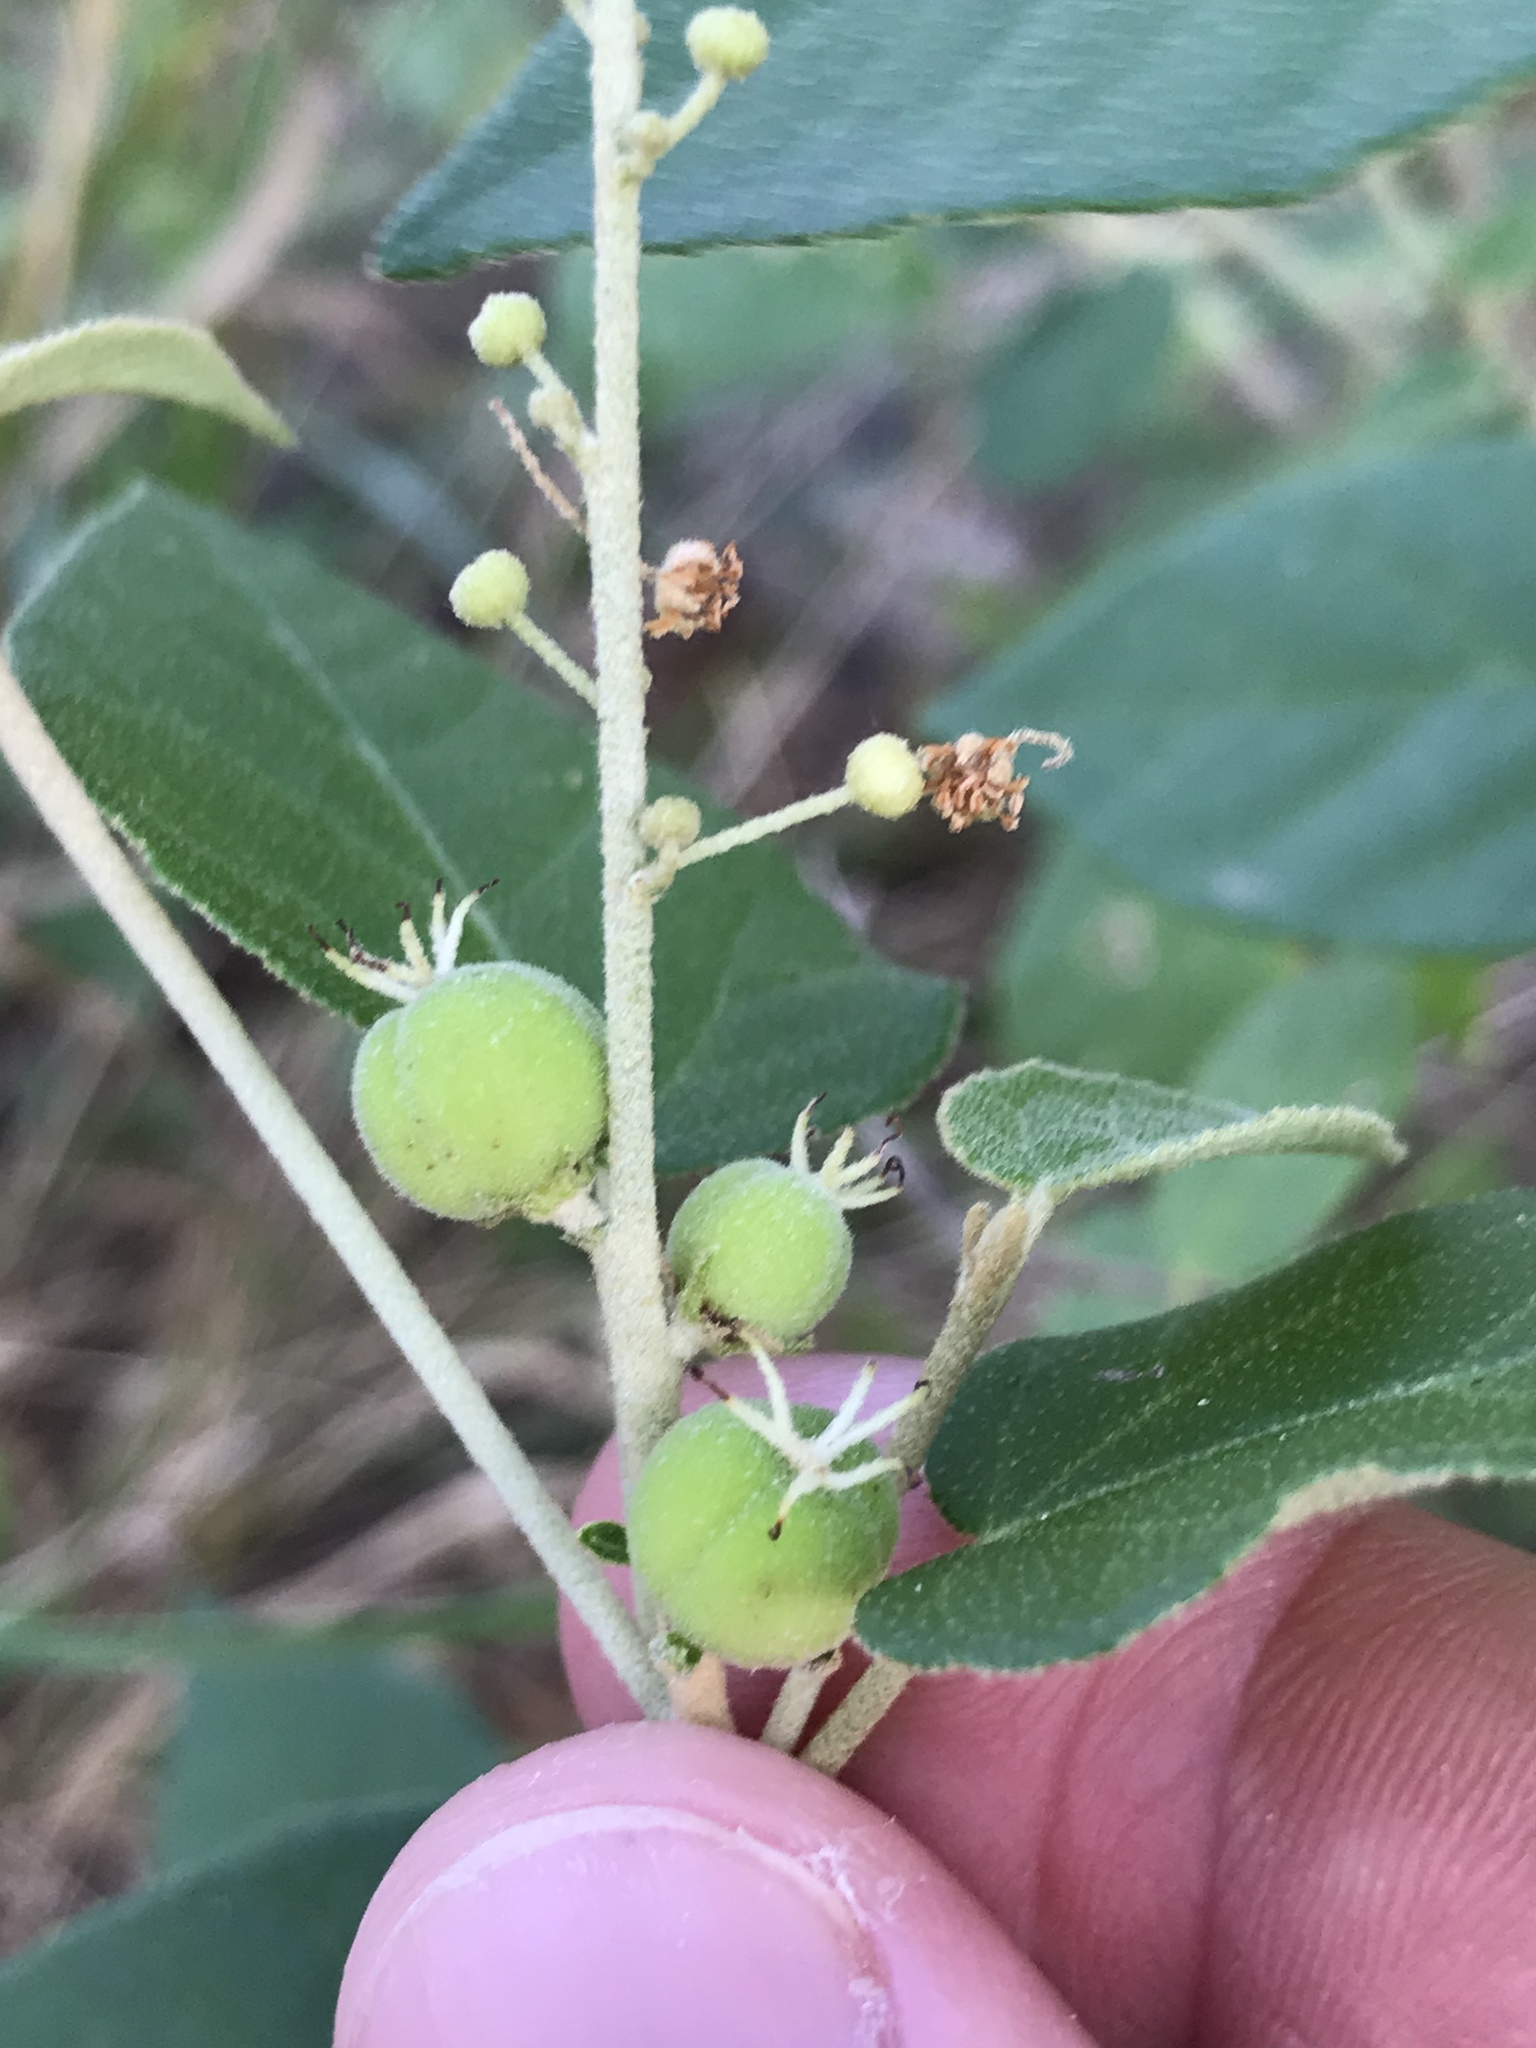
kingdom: Plantae
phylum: Tracheophyta
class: Magnoliopsida
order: Malpighiales
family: Euphorbiaceae
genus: Croton
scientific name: Croton fruticulosus
